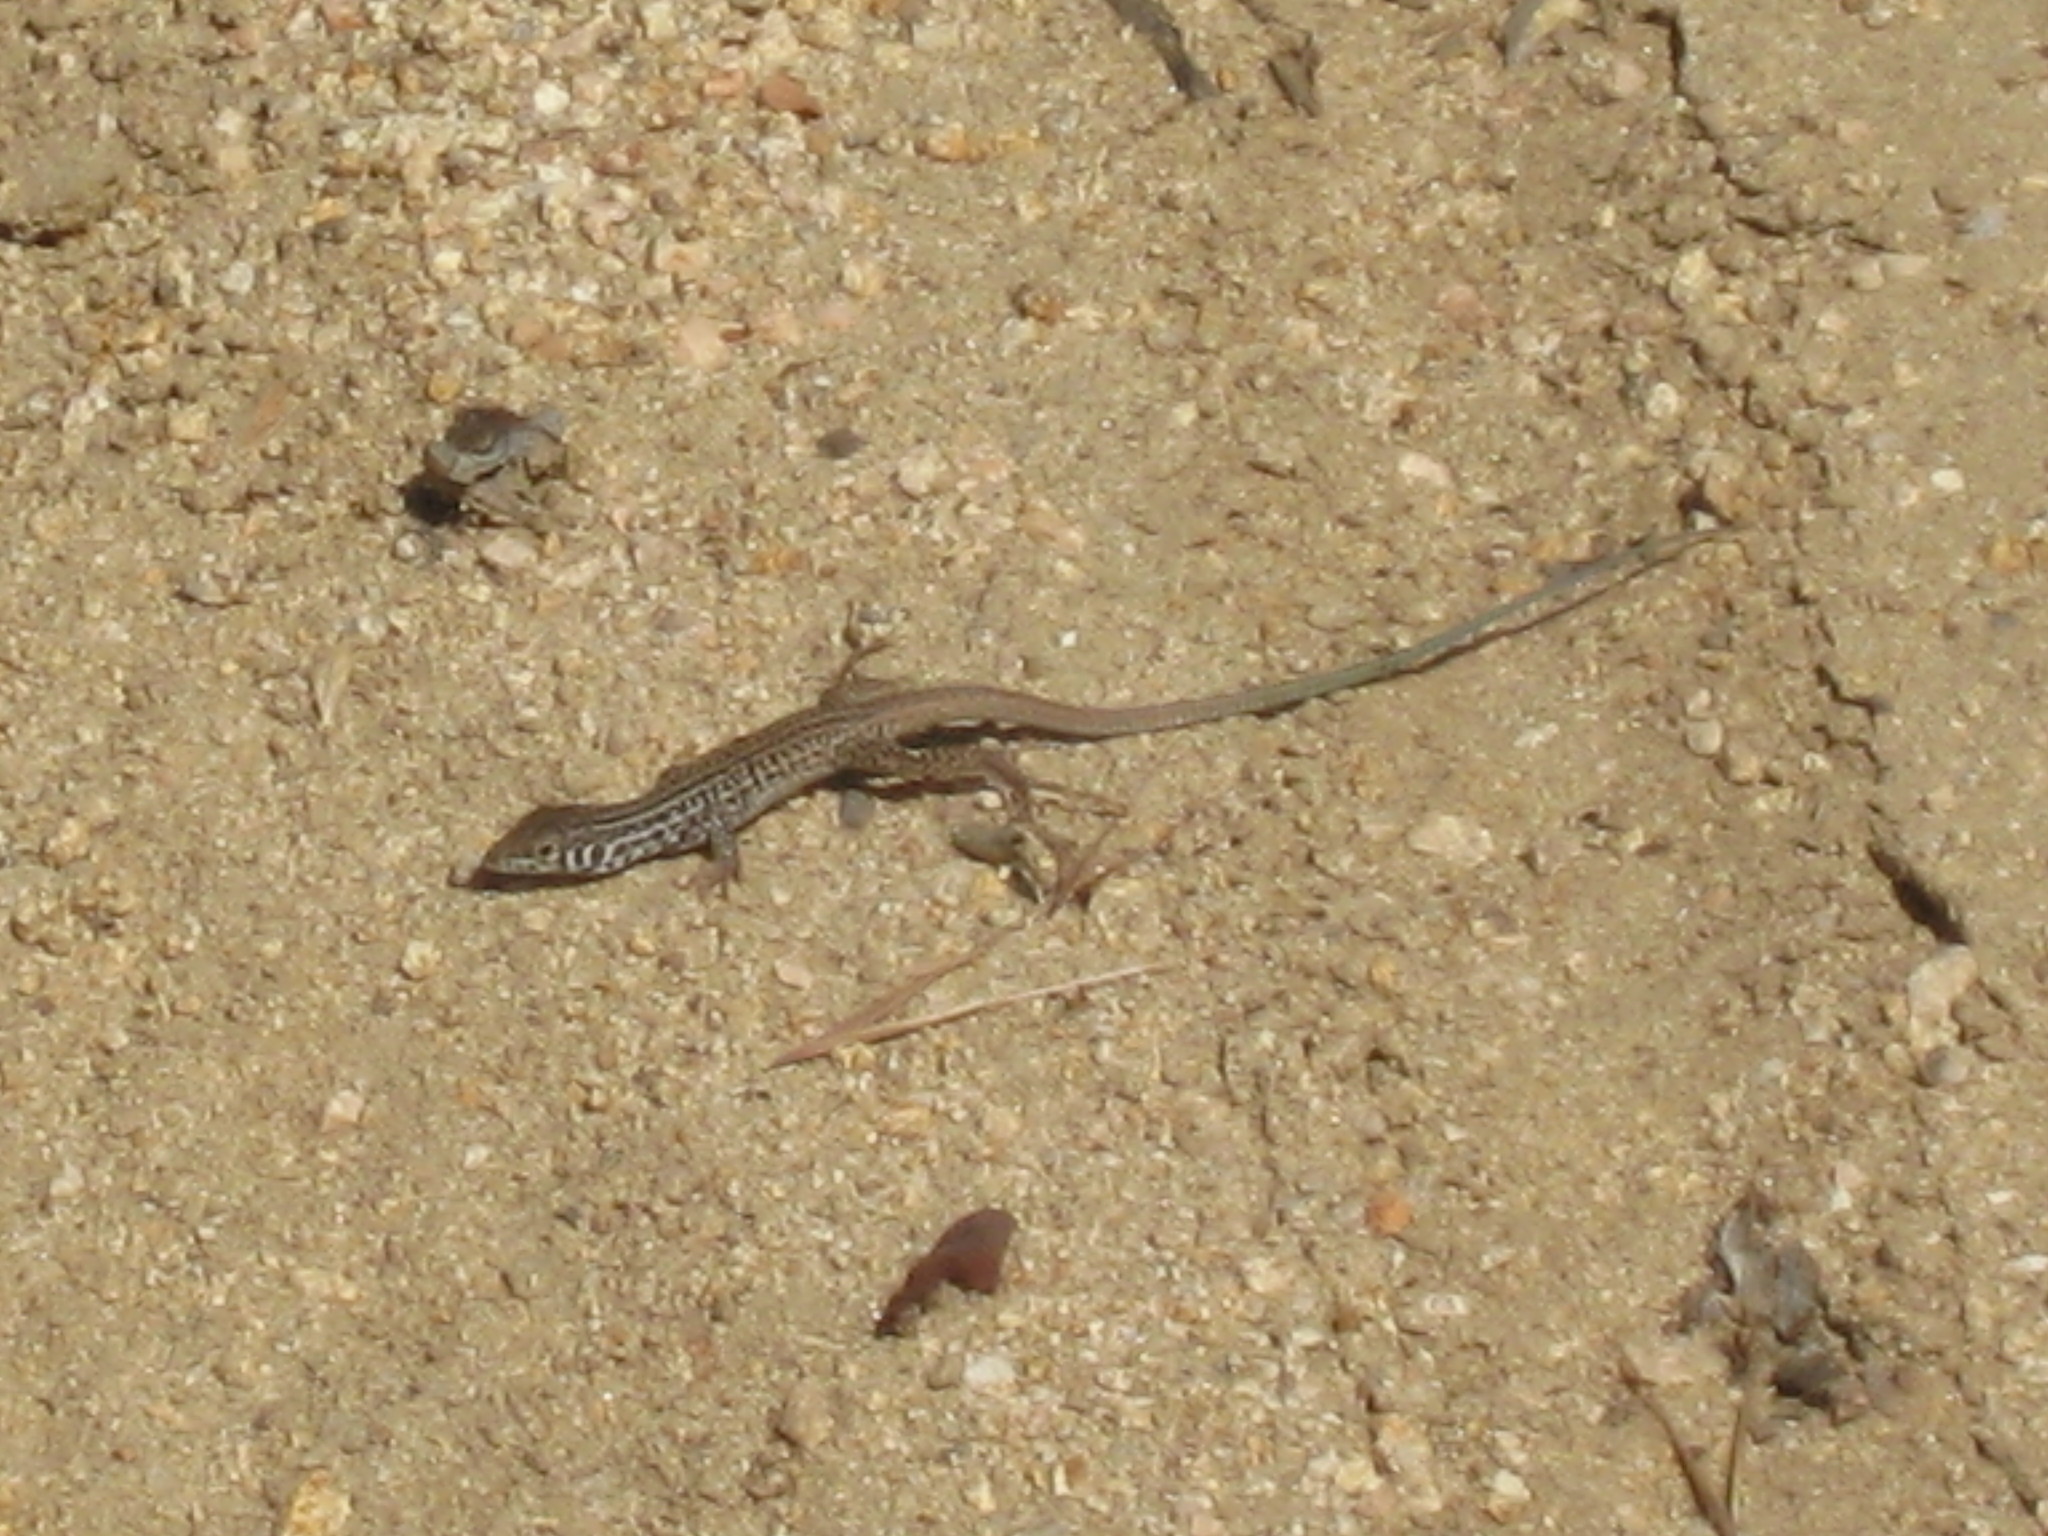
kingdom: Animalia
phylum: Chordata
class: Squamata
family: Teiidae
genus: Aspidoscelis
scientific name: Aspidoscelis tigris
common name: Tiger whiptail
